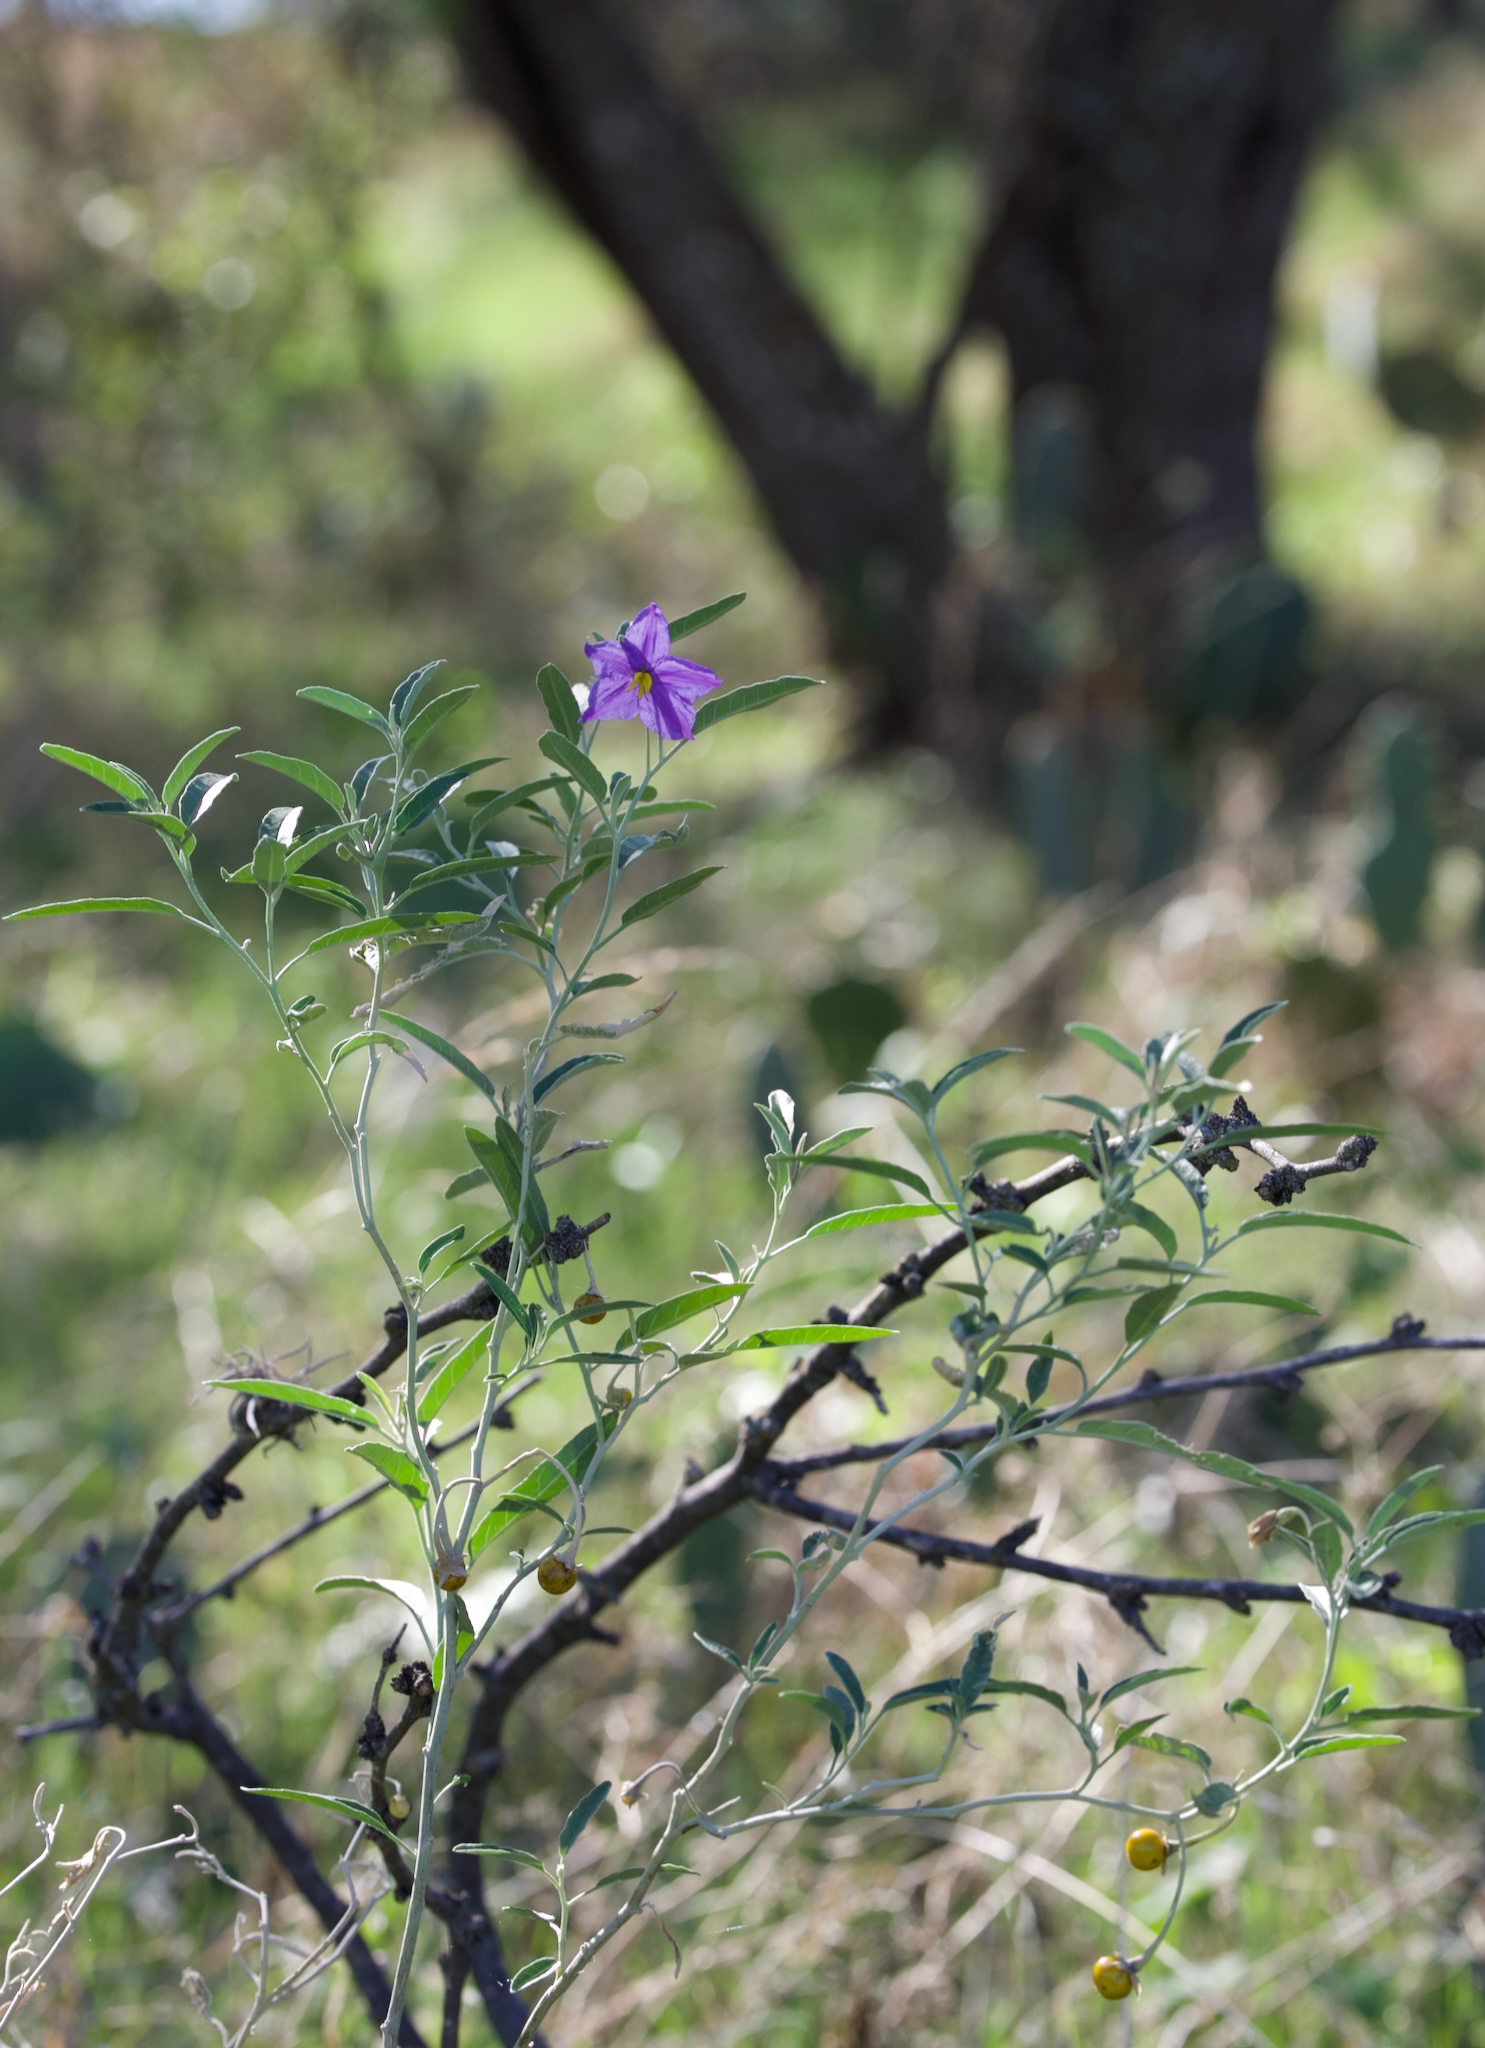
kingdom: Plantae
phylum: Tracheophyta
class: Magnoliopsida
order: Solanales
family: Solanaceae
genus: Solanum
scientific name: Solanum elaeagnifolium
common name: Silverleaf nightshade
